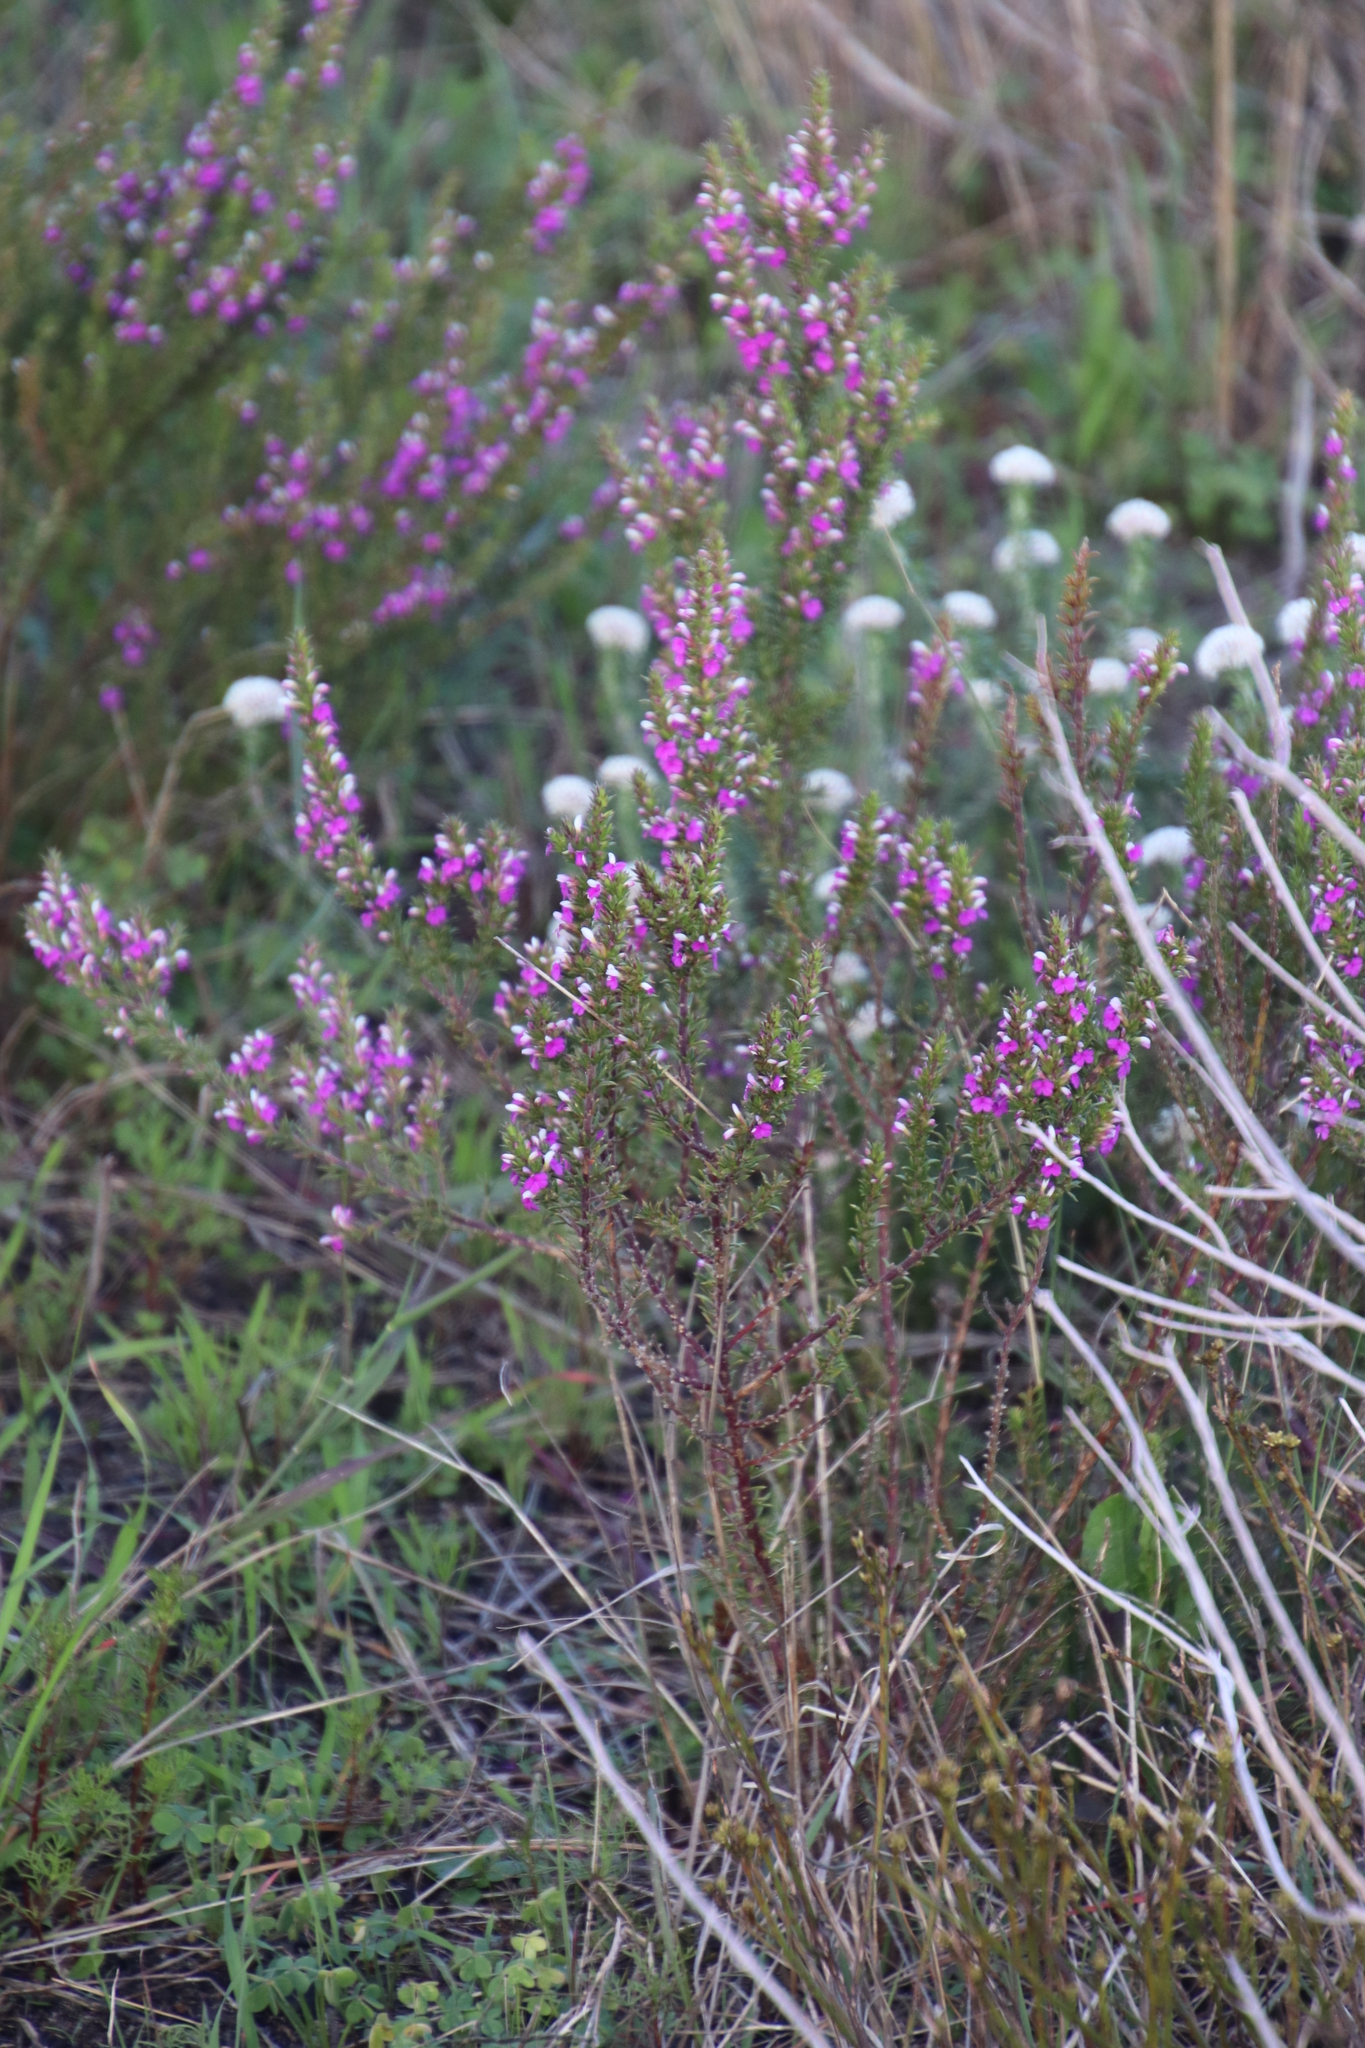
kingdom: Plantae
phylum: Tracheophyta
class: Magnoliopsida
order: Fabales
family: Polygalaceae
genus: Muraltia
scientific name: Muraltia heisteria
